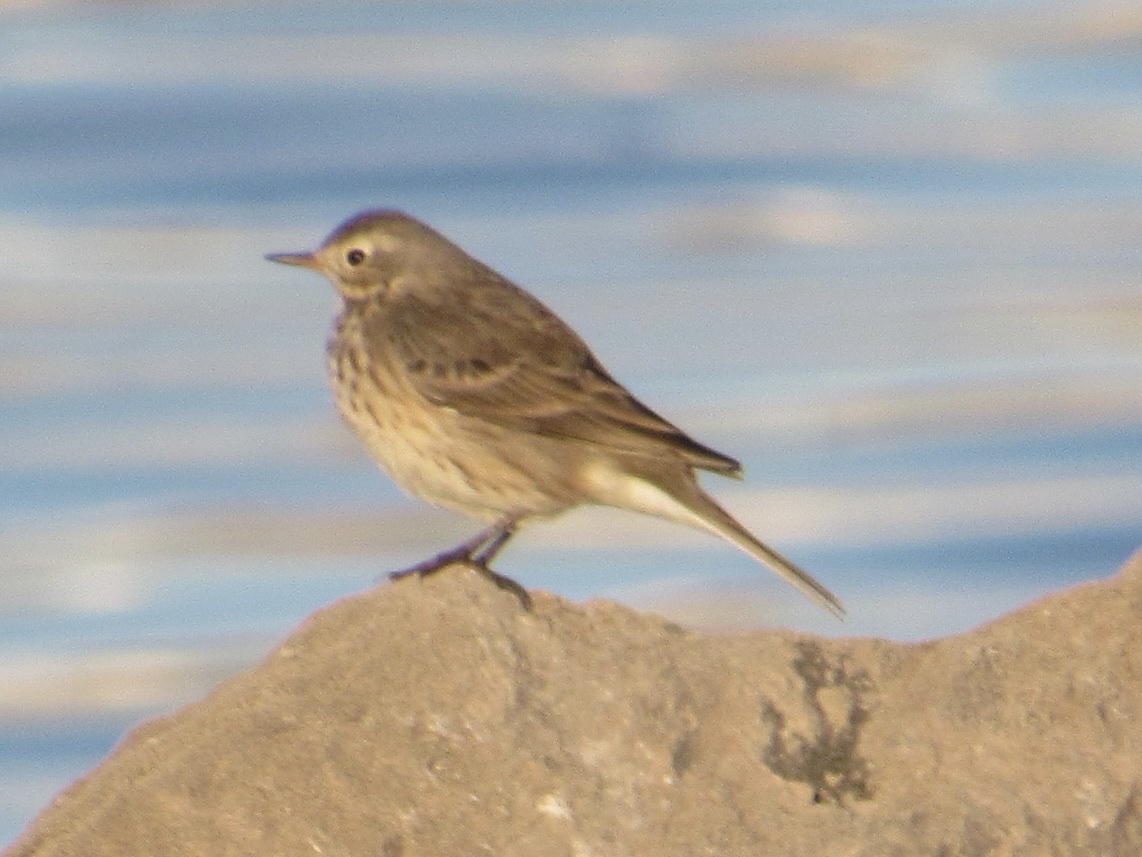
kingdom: Animalia
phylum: Chordata
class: Aves
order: Passeriformes
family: Motacillidae
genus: Anthus
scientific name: Anthus rubescens
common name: Buff-bellied pipit
